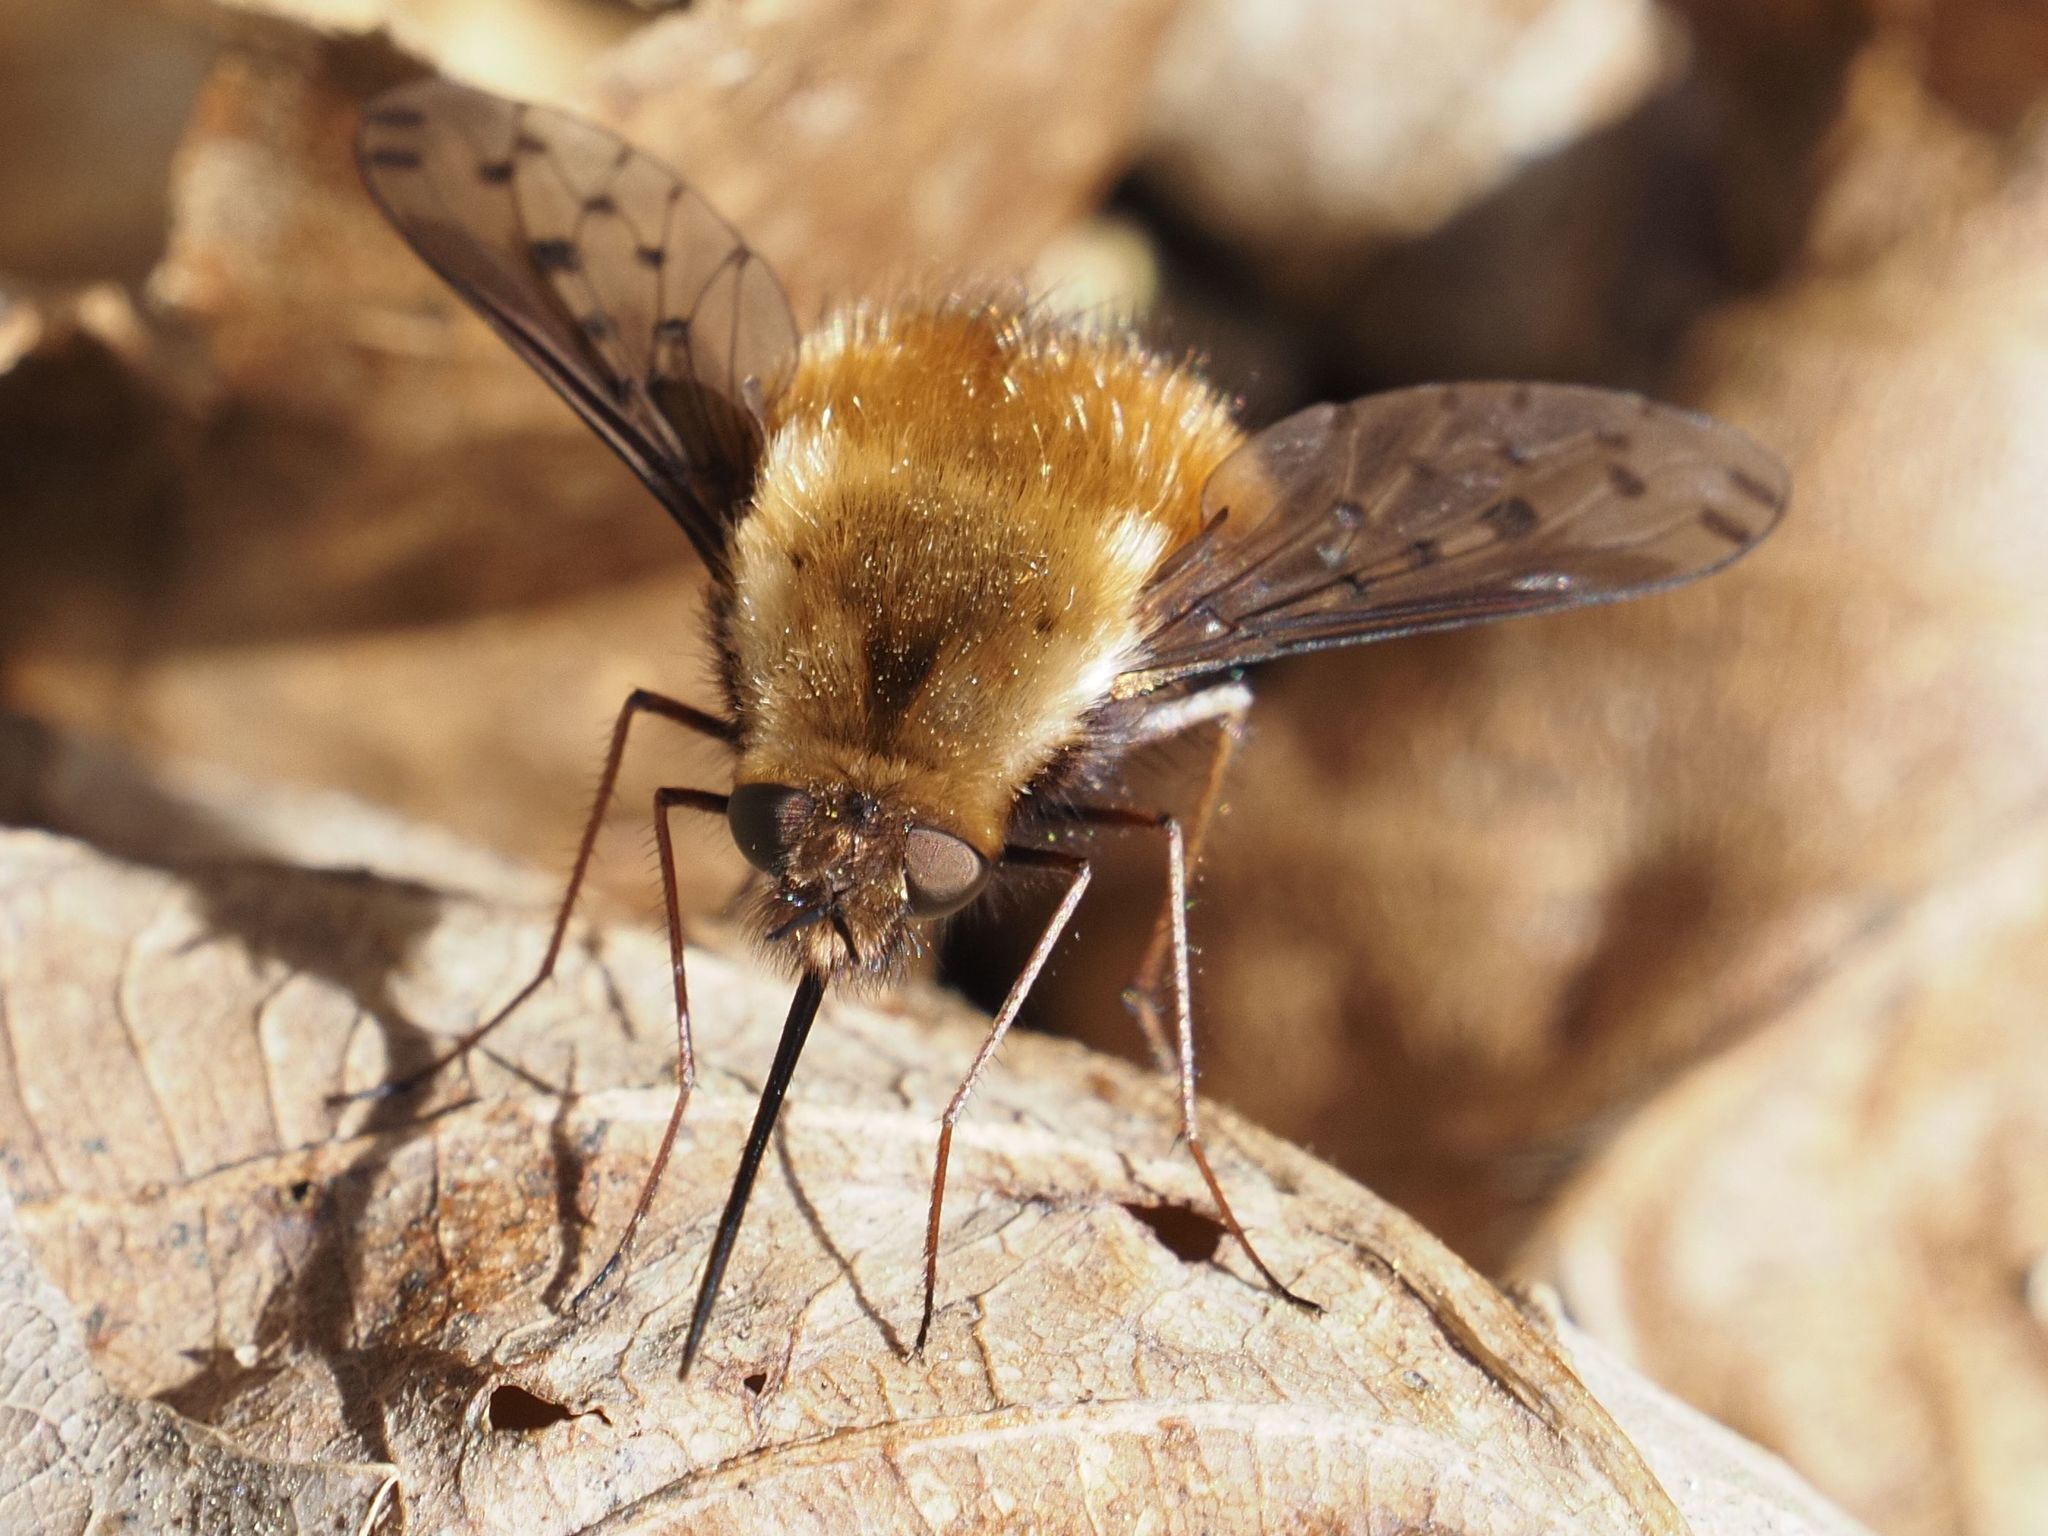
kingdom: Animalia
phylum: Arthropoda
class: Insecta
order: Diptera
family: Bombyliidae
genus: Bombylius
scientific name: Bombylius discolor
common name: Dotted bee-fly
